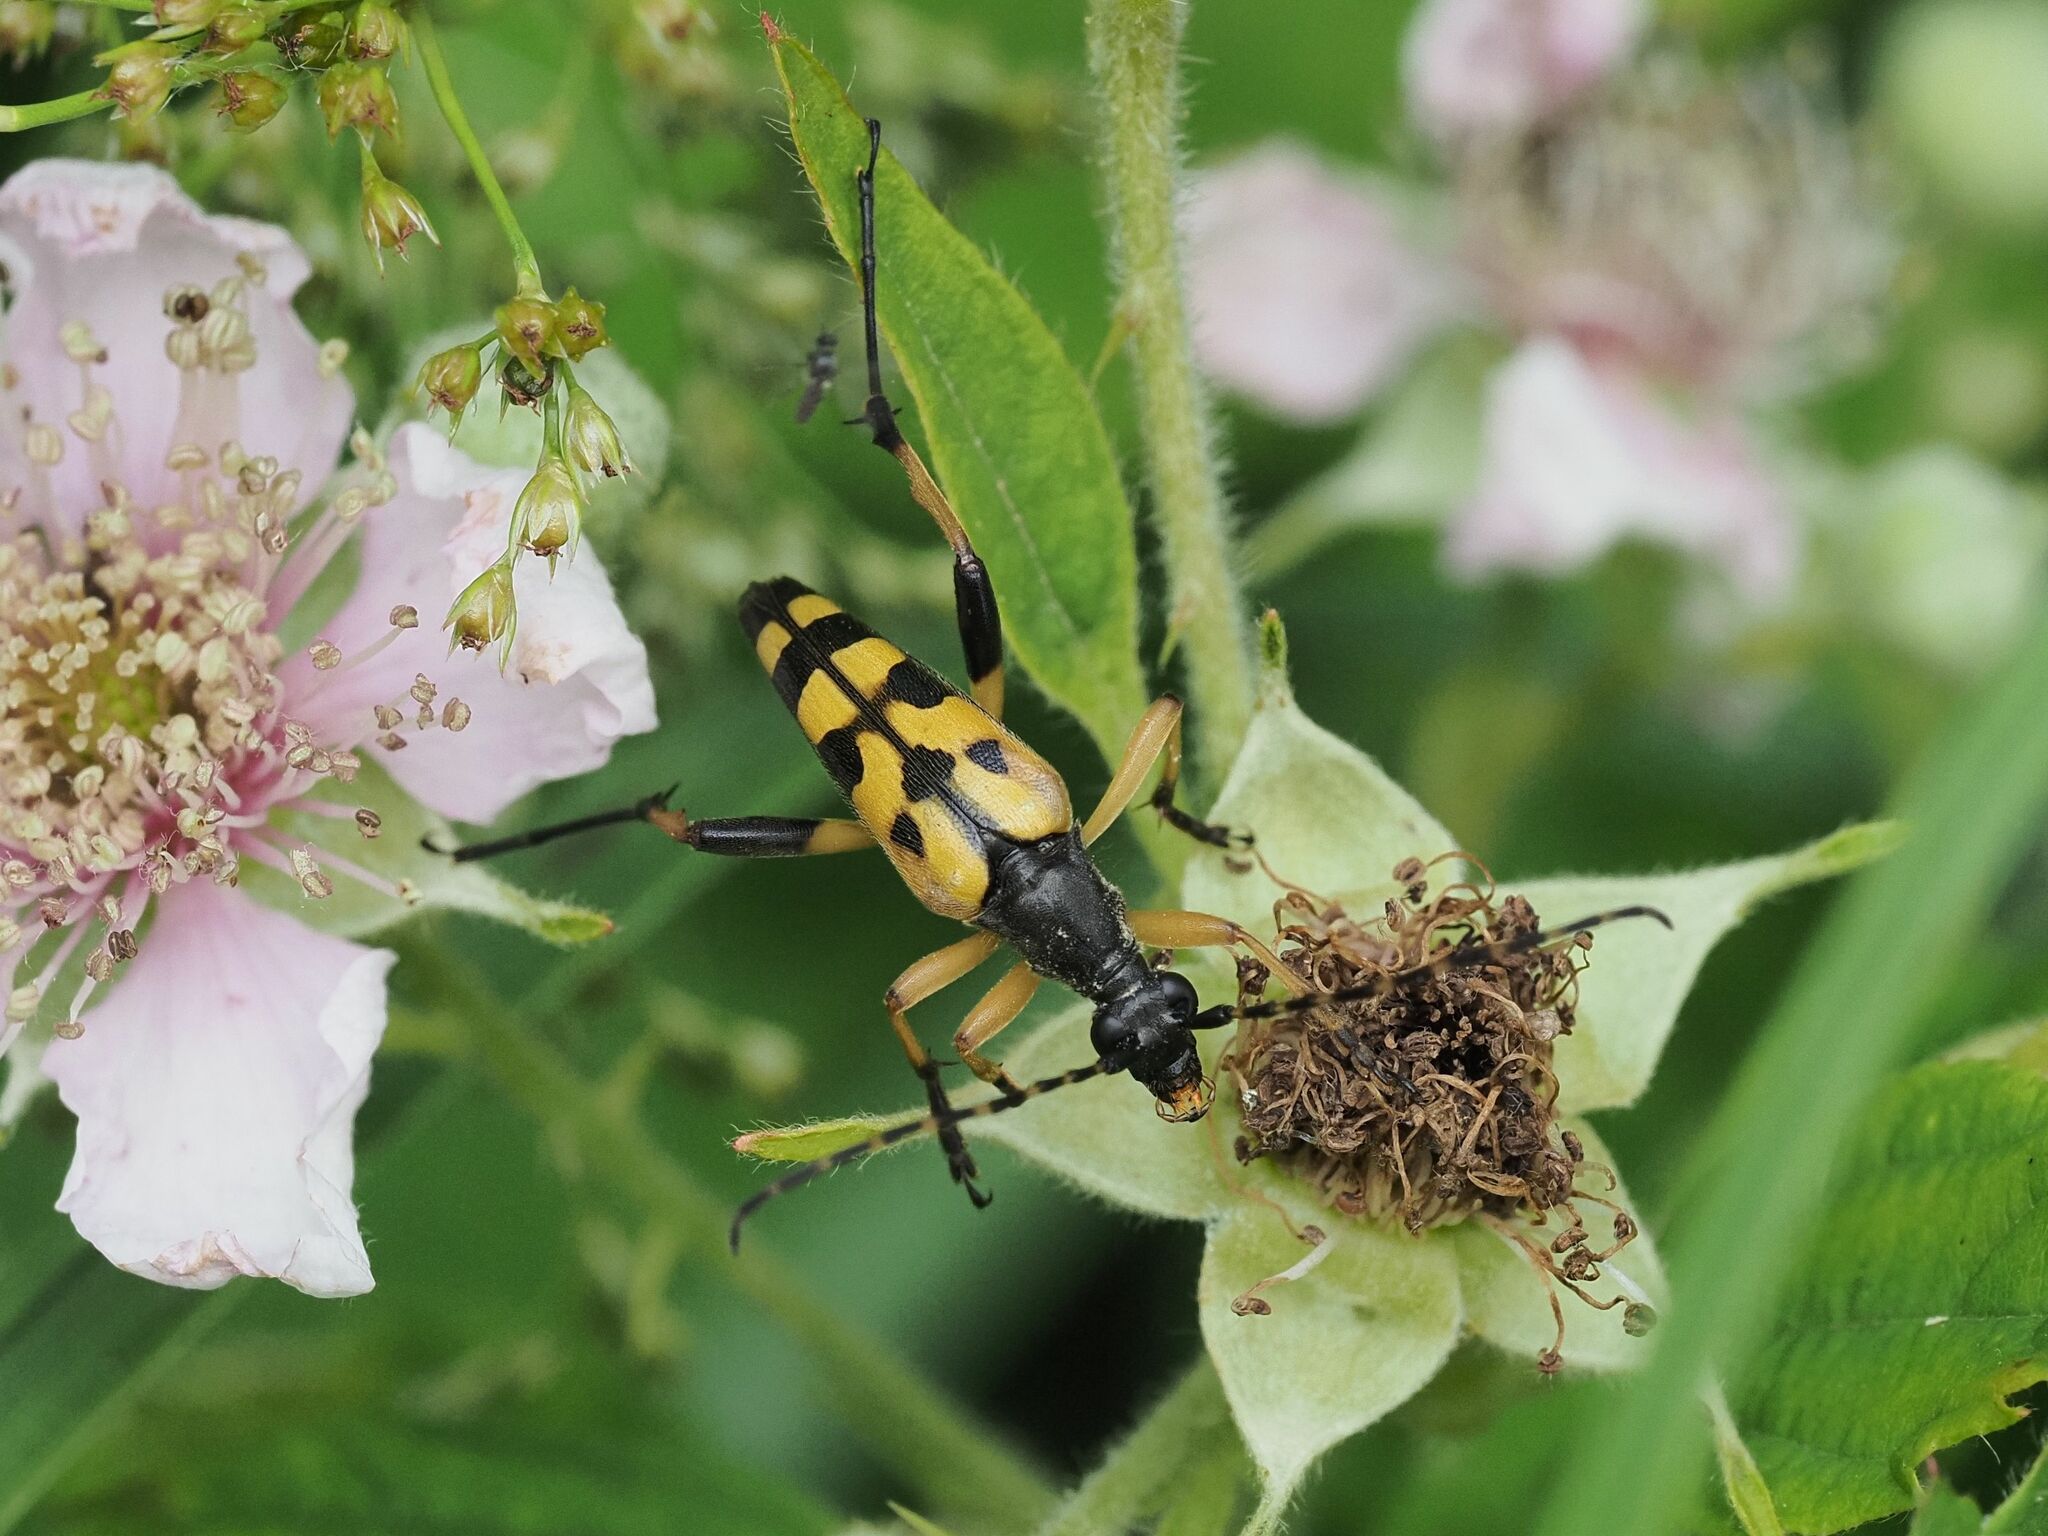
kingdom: Animalia
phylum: Arthropoda
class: Insecta
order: Coleoptera
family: Cerambycidae
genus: Rutpela
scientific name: Rutpela maculata
